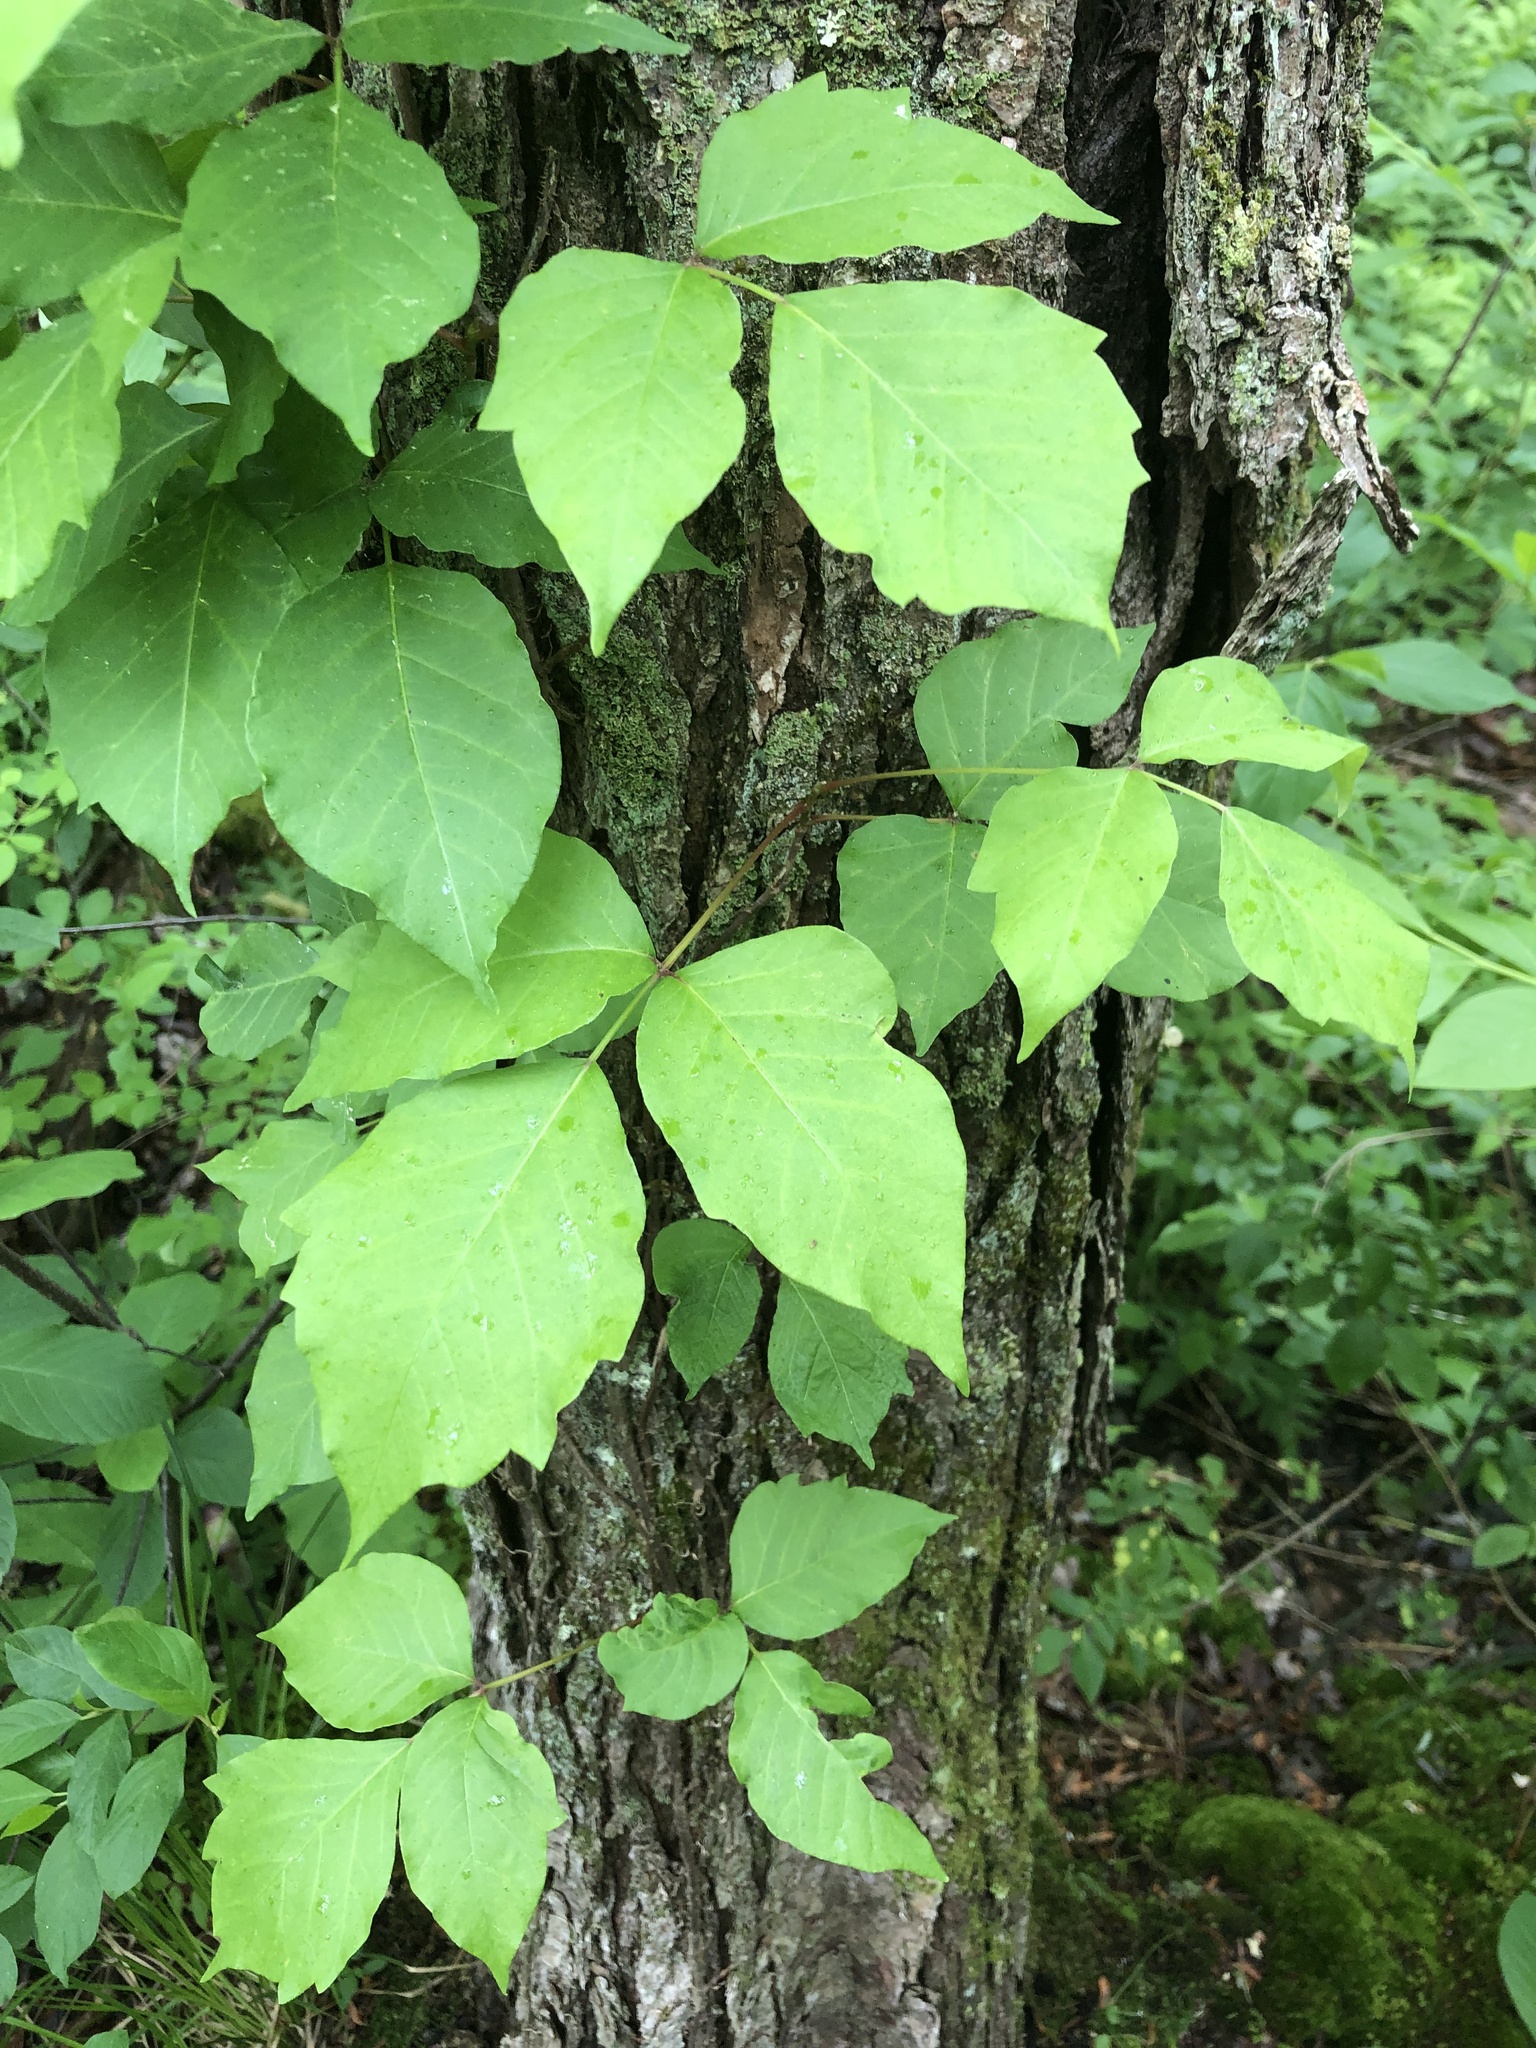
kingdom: Plantae
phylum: Tracheophyta
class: Magnoliopsida
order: Sapindales
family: Anacardiaceae
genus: Toxicodendron
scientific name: Toxicodendron radicans
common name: Poison ivy
